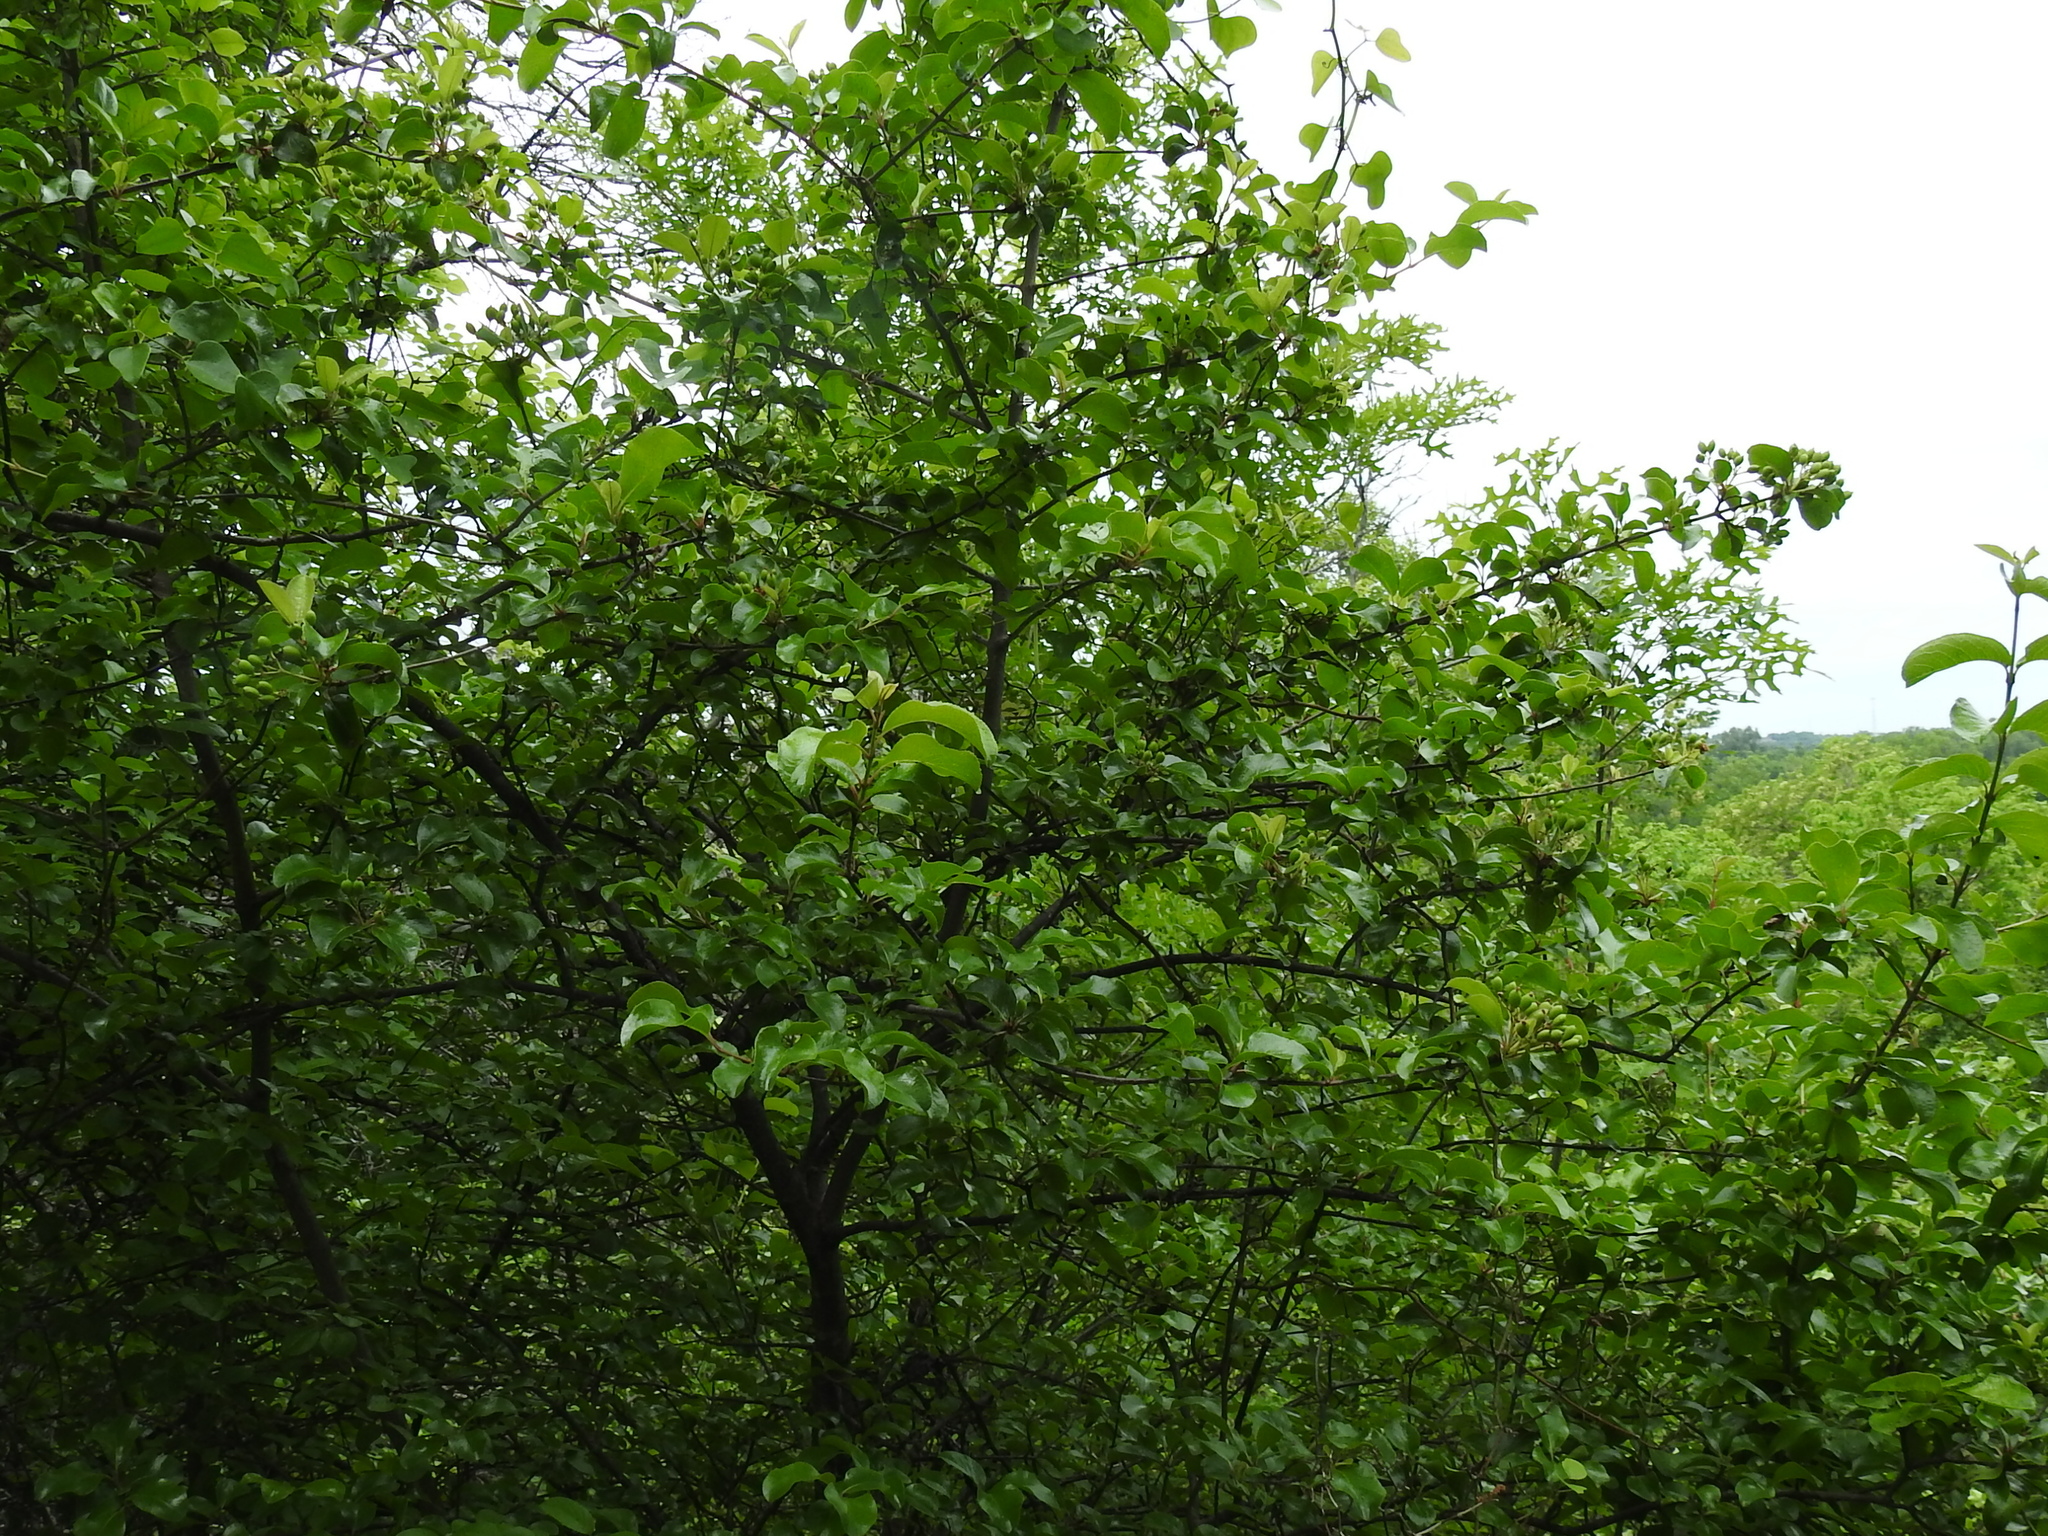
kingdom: Plantae
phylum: Tracheophyta
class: Magnoliopsida
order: Dipsacales
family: Viburnaceae
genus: Viburnum
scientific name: Viburnum rufidulum
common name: Blue haw
